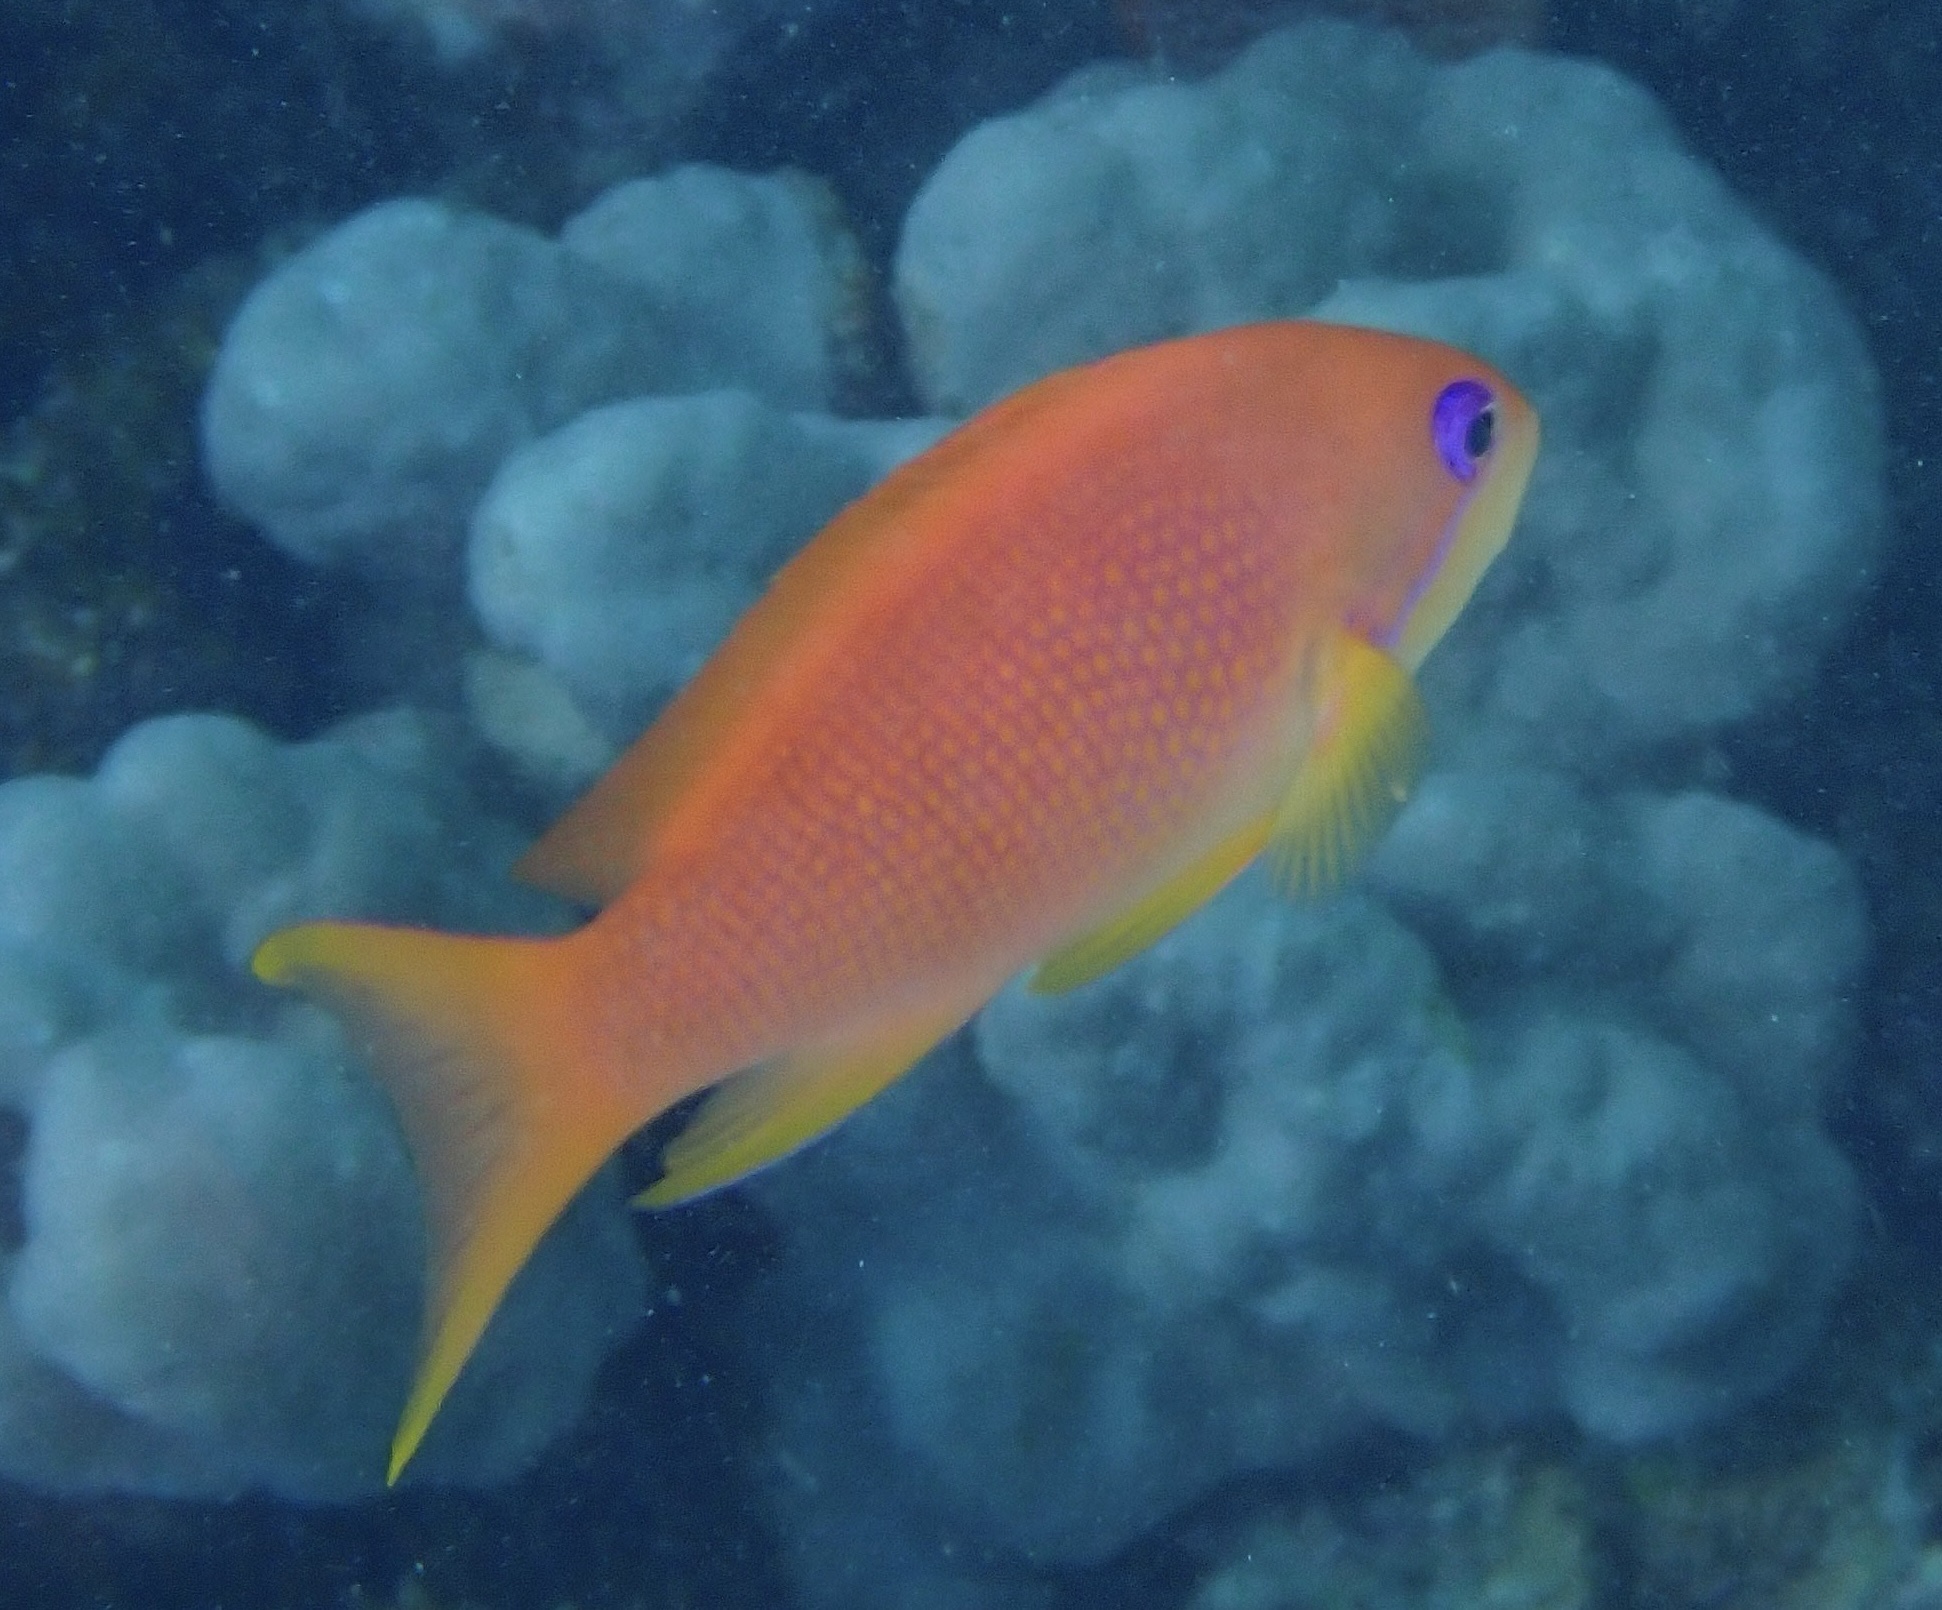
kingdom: Animalia
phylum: Chordata
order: Perciformes
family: Serranidae
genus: Pseudanthias
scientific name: Pseudanthias squamipinnis
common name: Scalefin anthias
